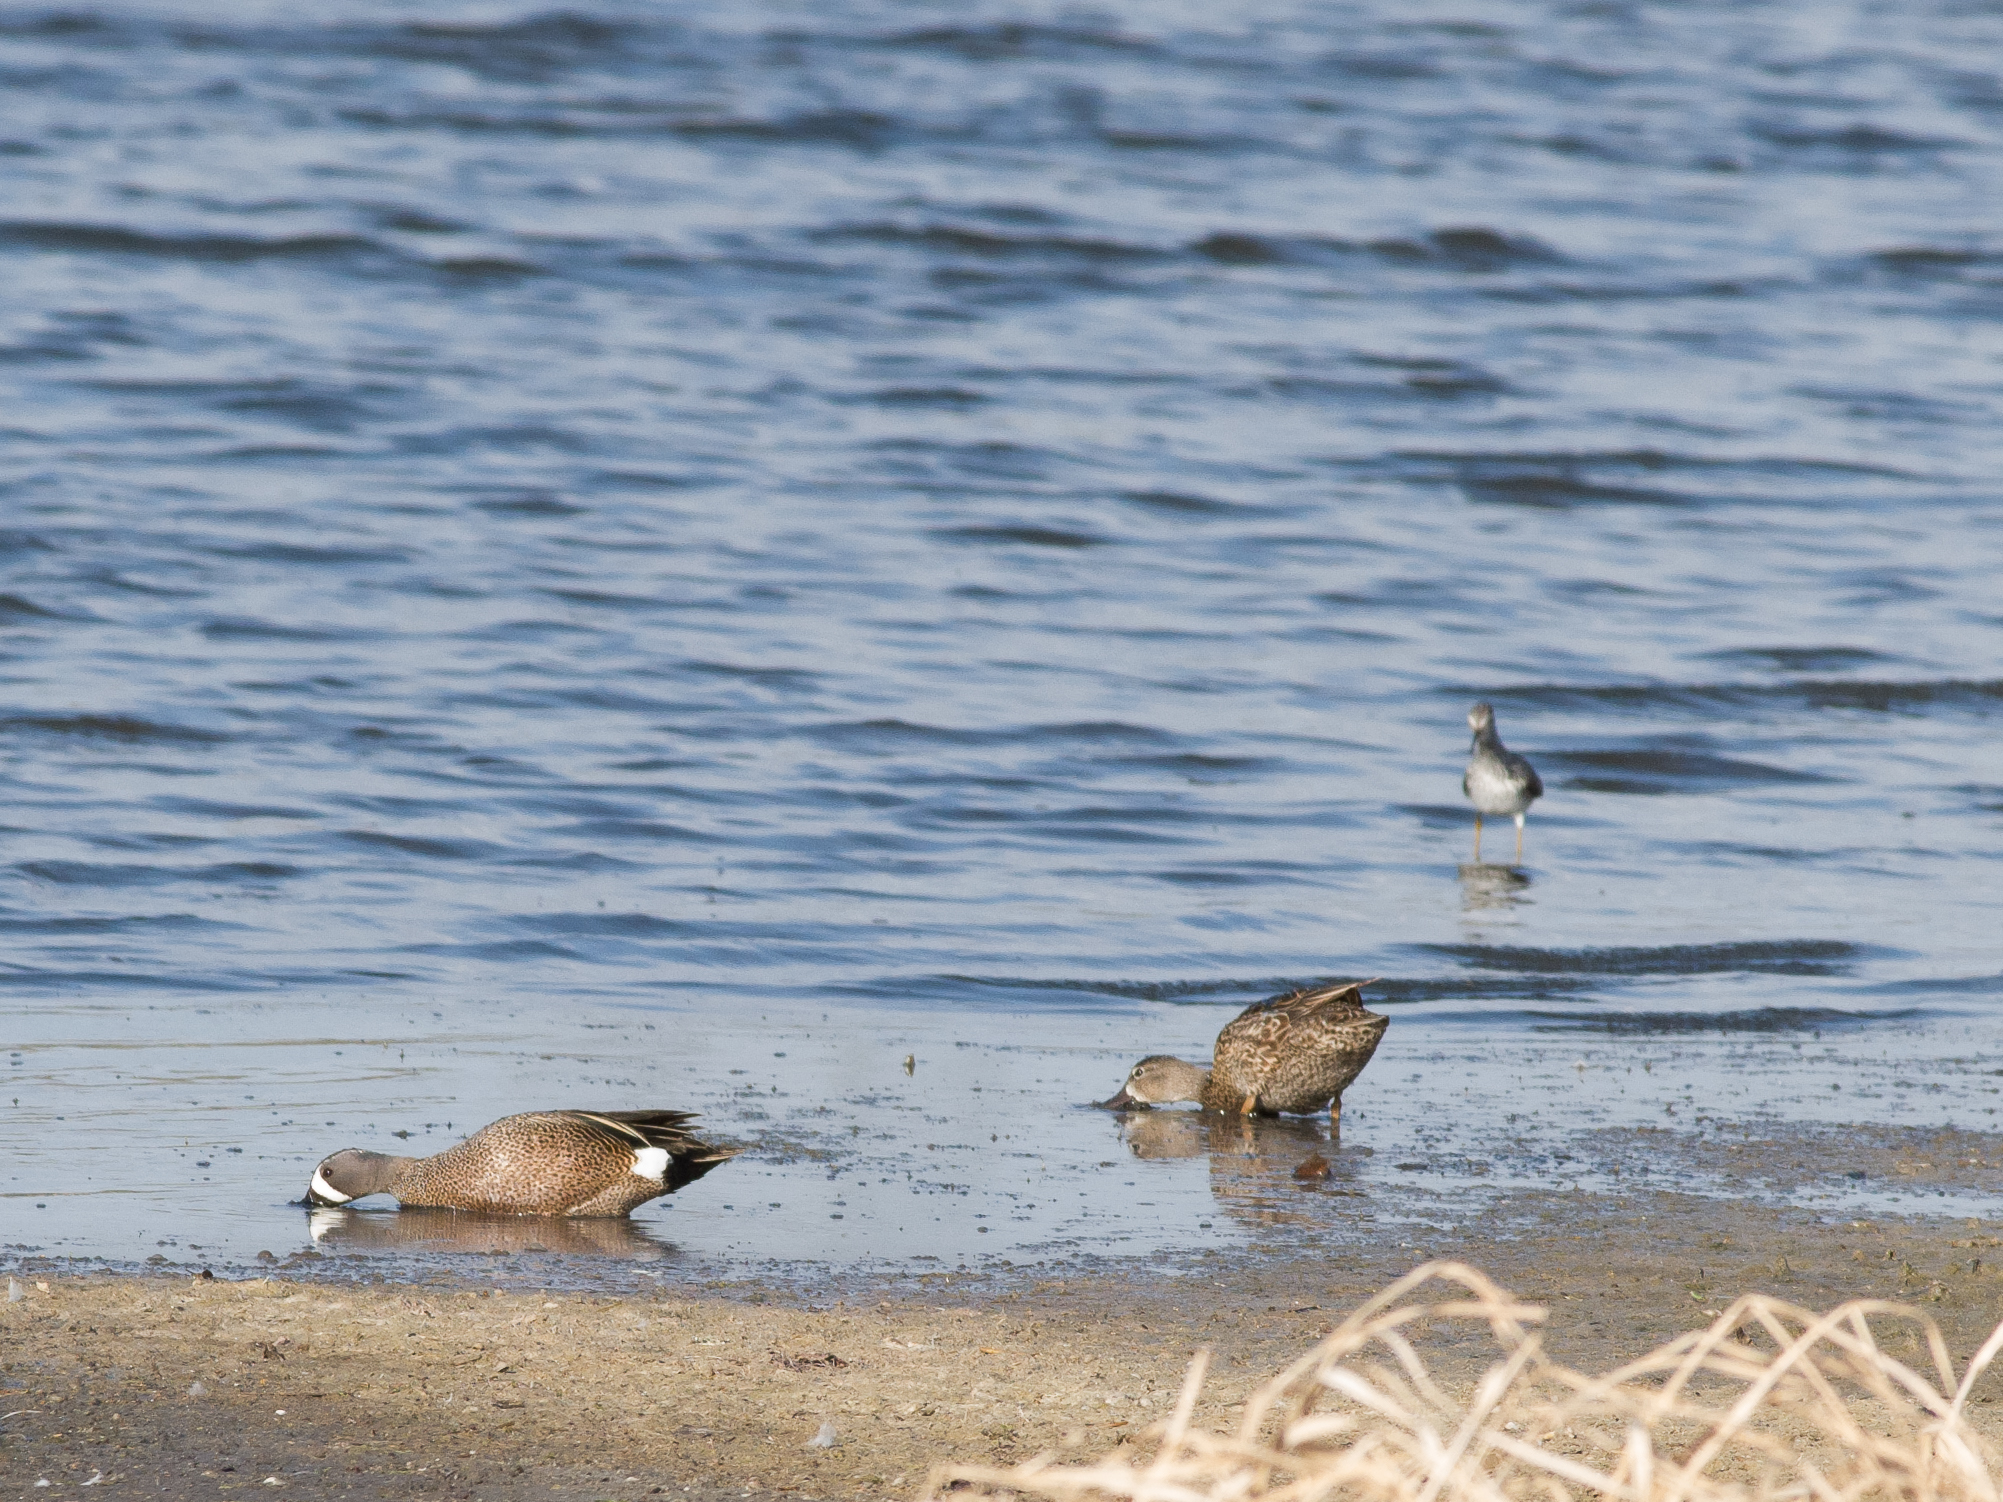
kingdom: Animalia
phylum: Chordata
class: Aves
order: Anseriformes
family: Anatidae
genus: Spatula
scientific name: Spatula discors
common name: Blue-winged teal
